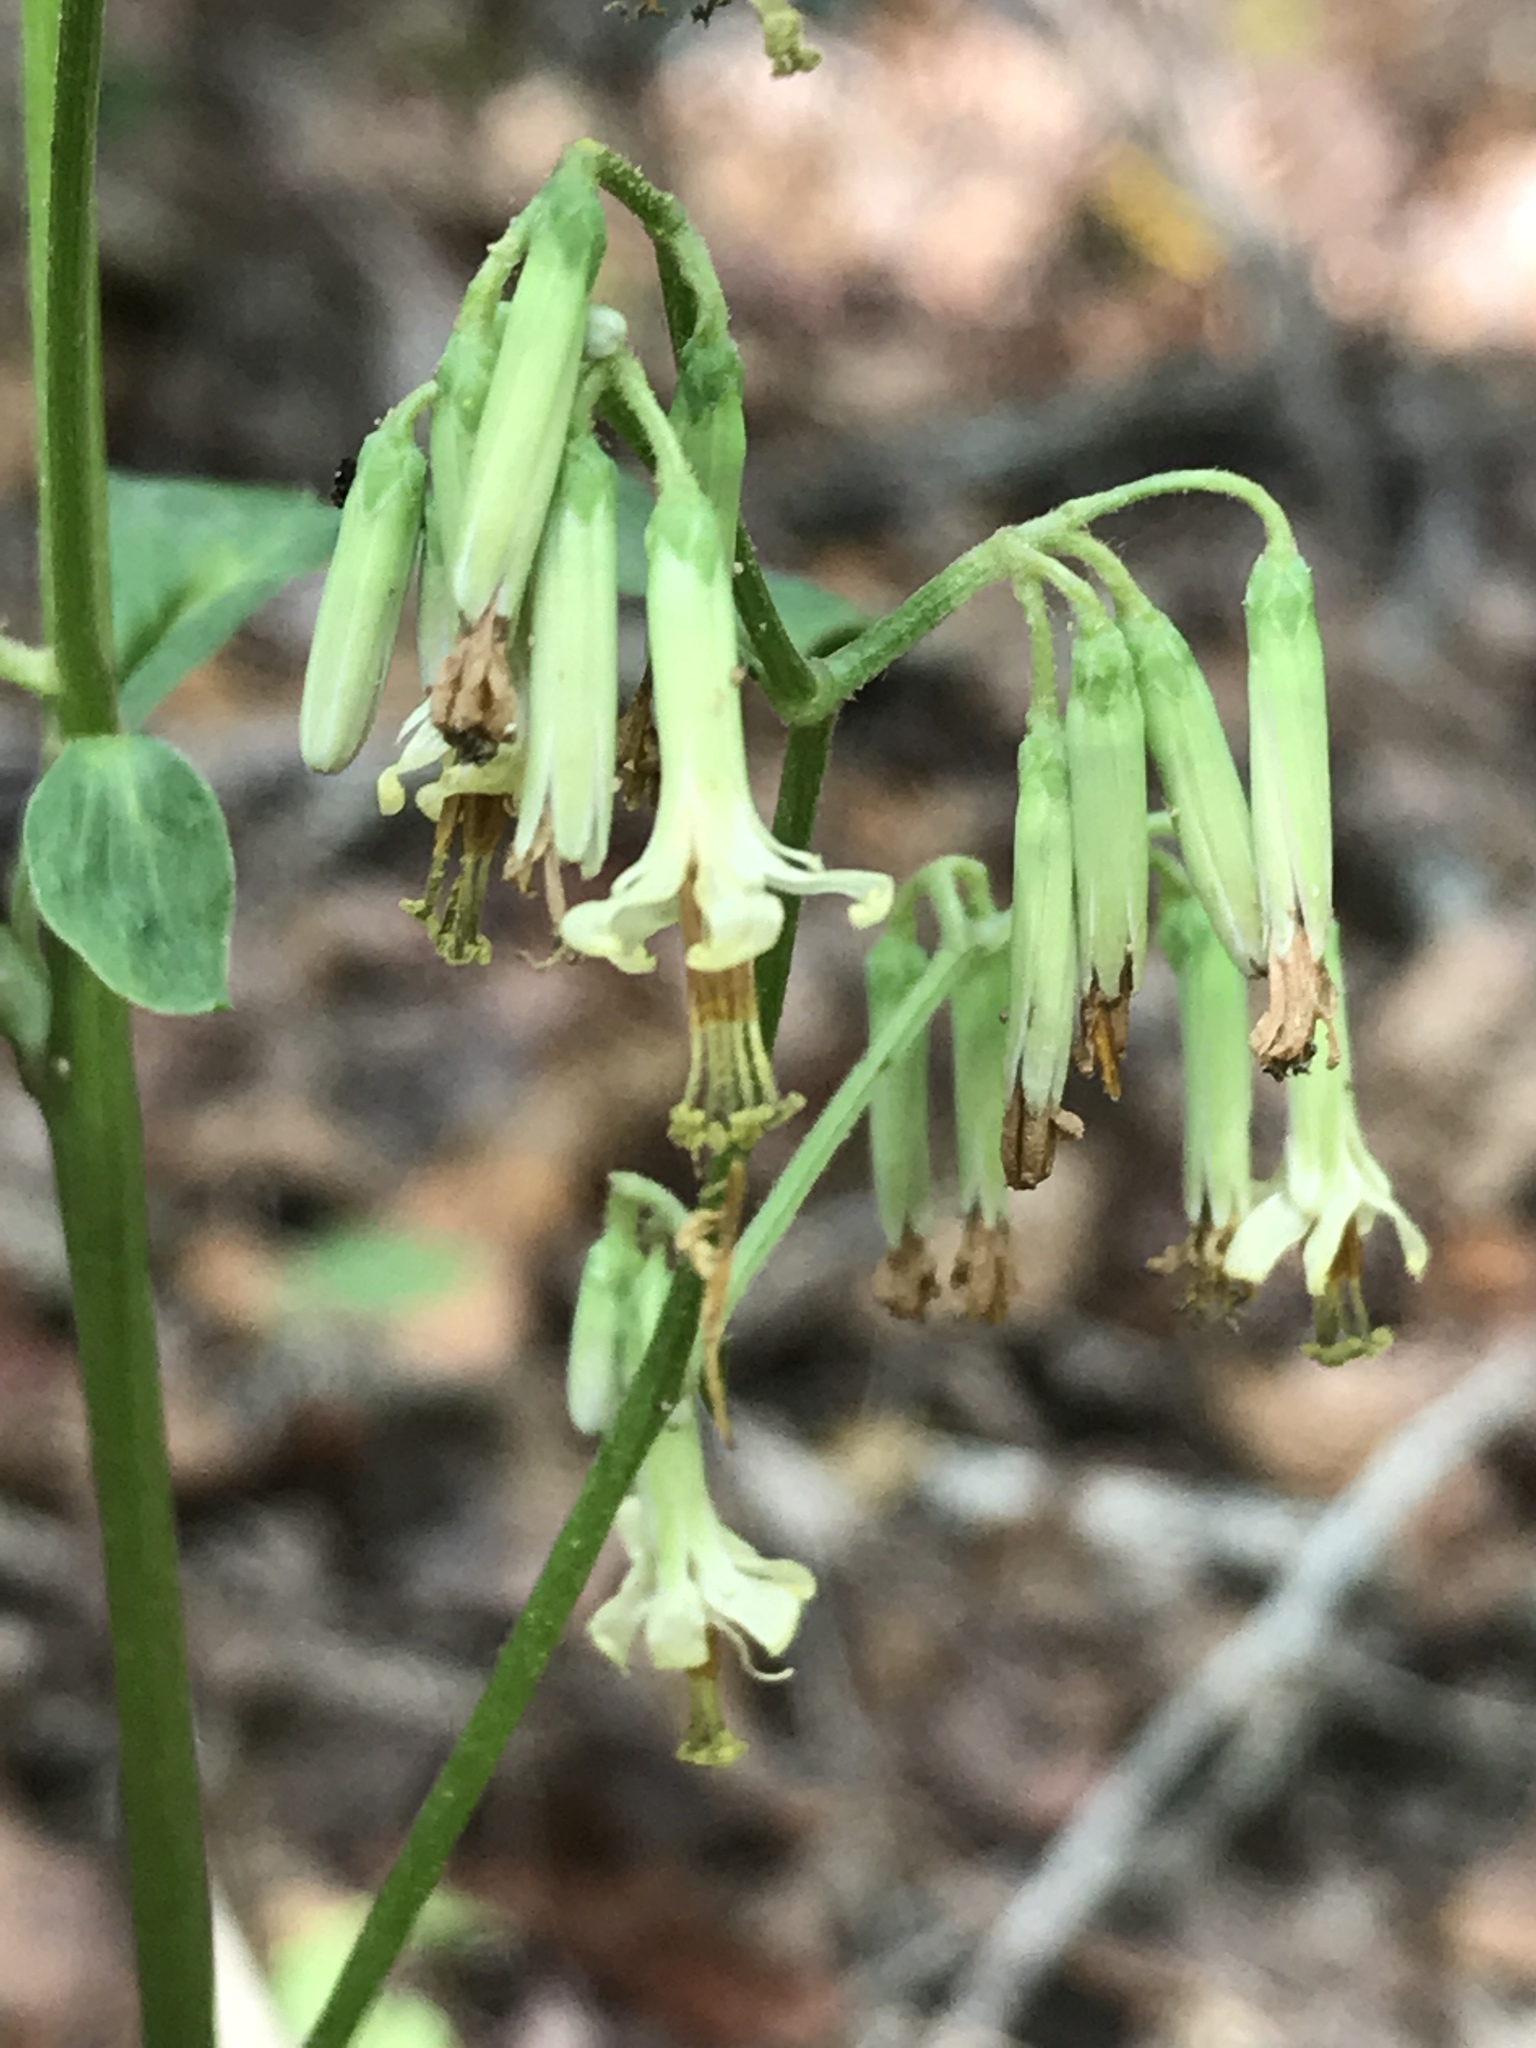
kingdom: Plantae
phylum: Tracheophyta
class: Magnoliopsida
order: Asterales
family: Asteraceae
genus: Nabalus
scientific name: Nabalus altissima
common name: Tall rattlesnakeroot
